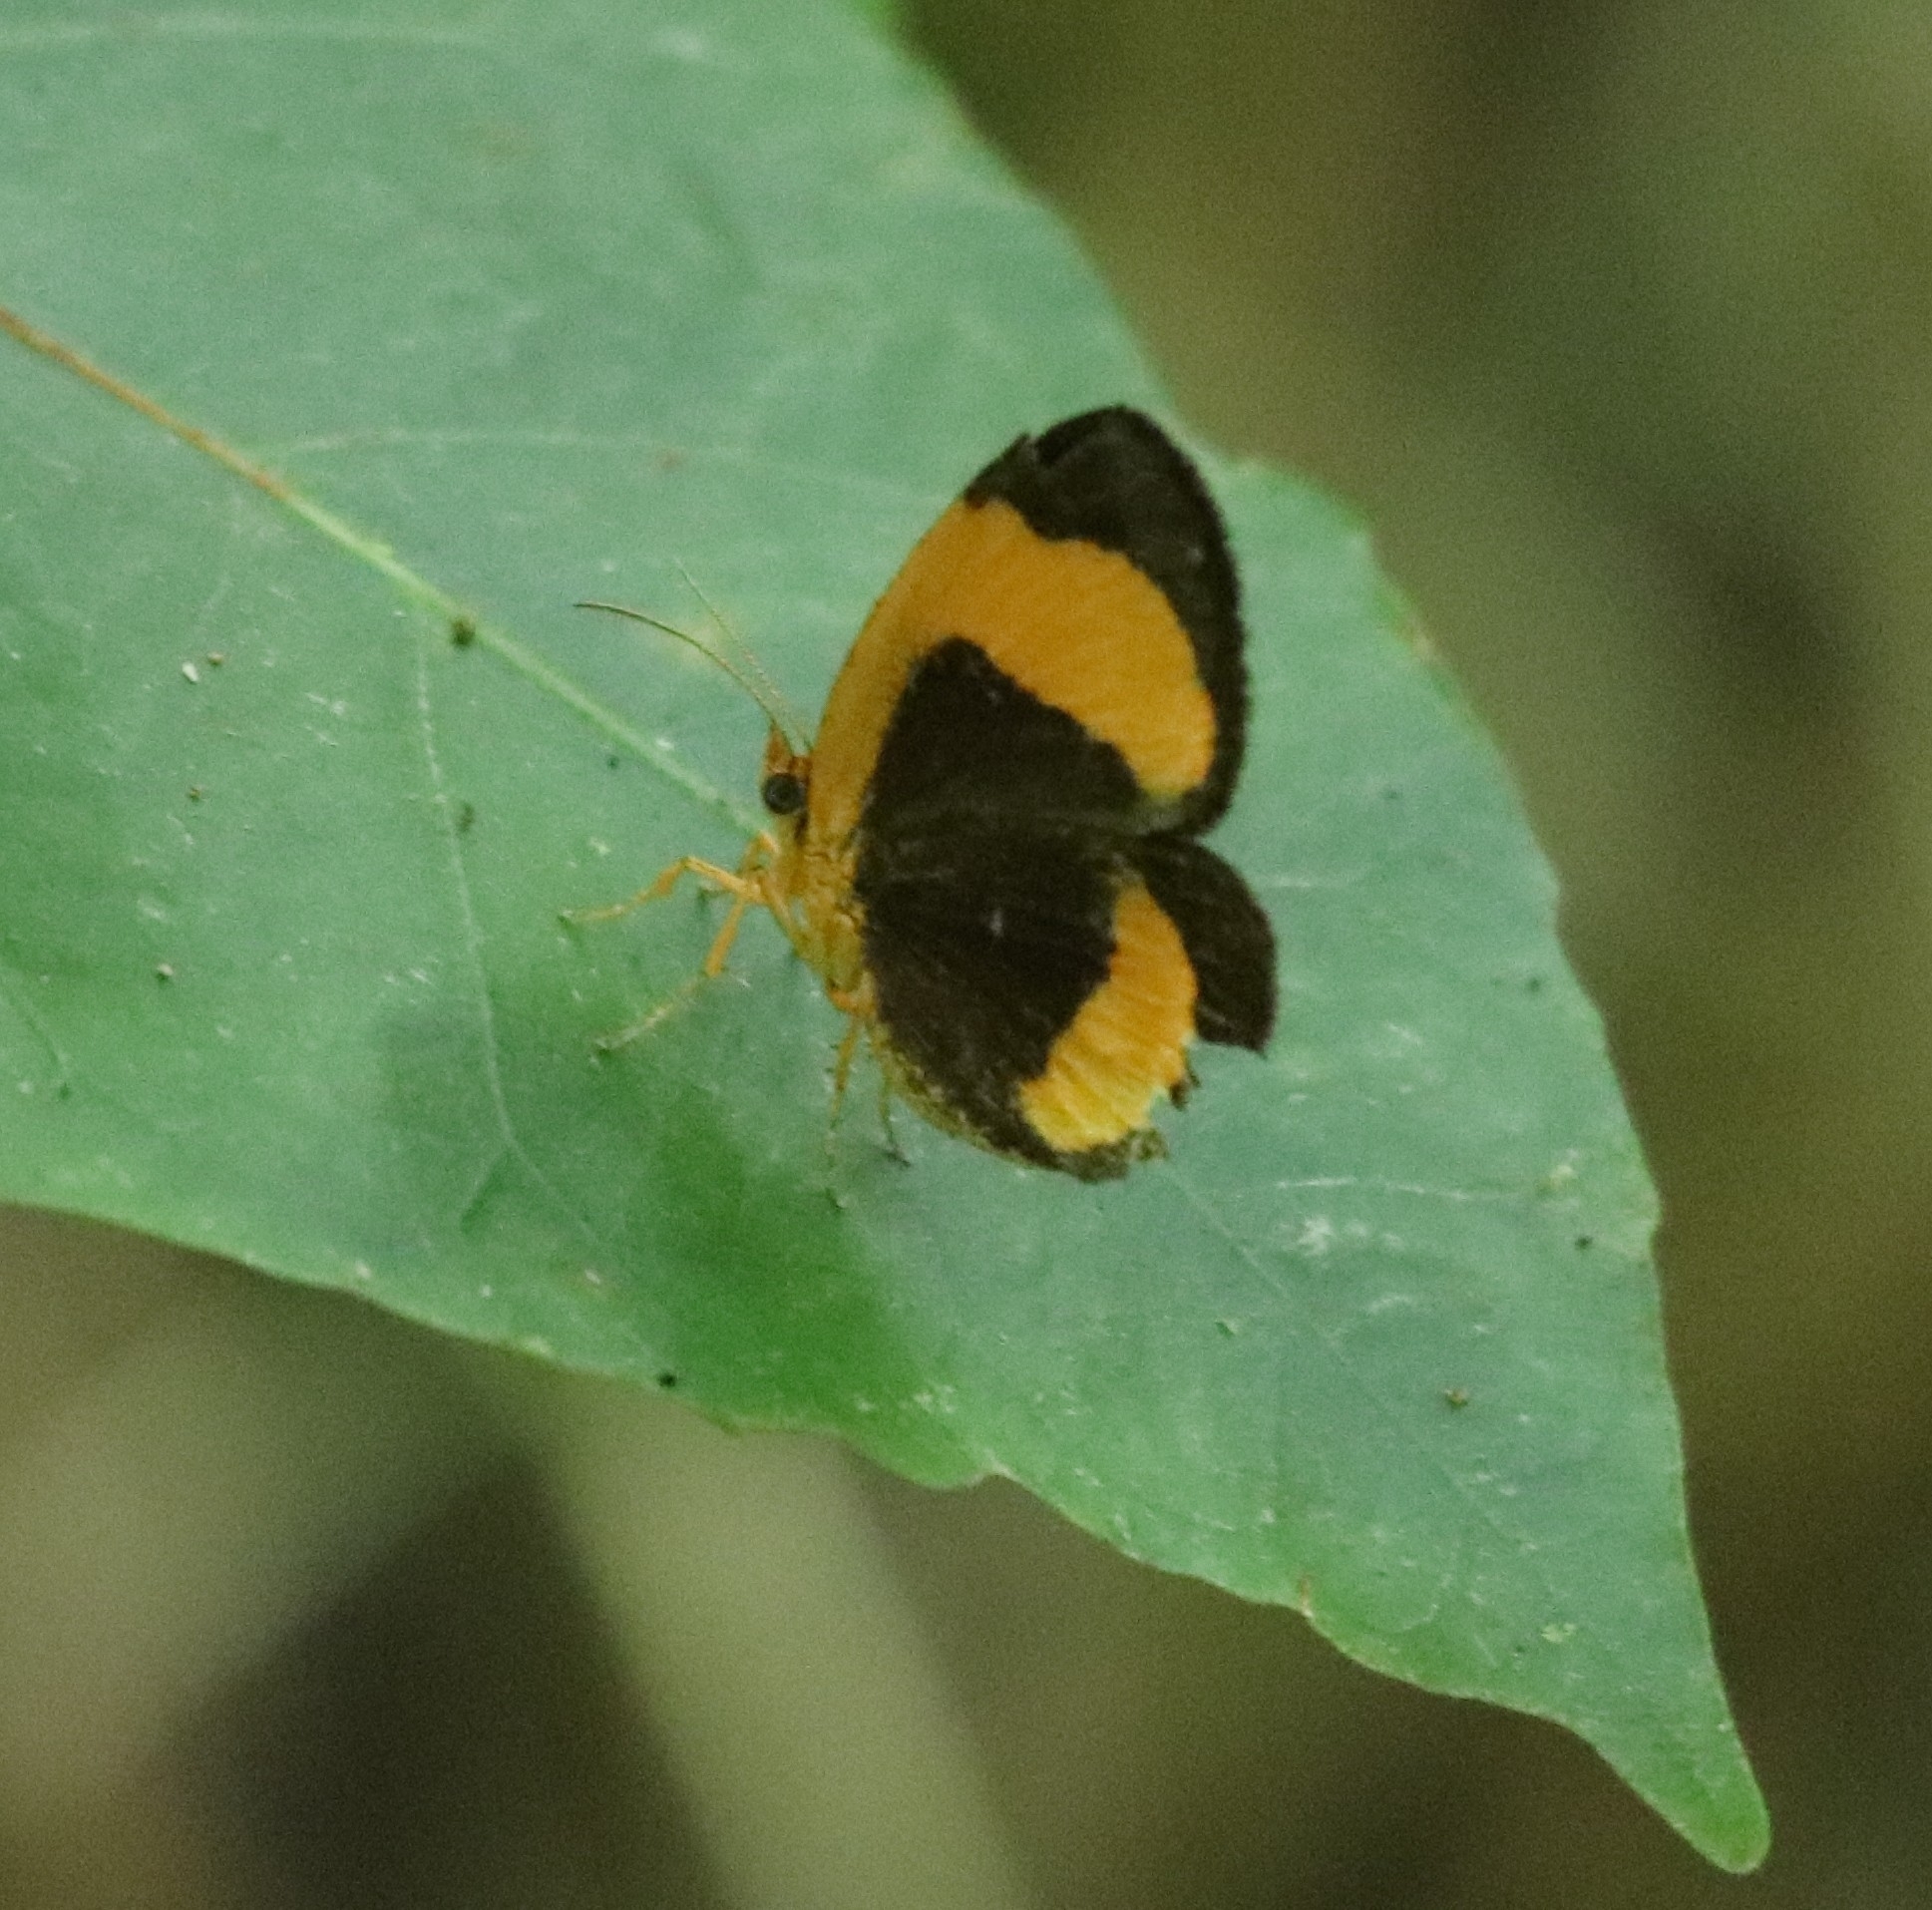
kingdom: Animalia
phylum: Arthropoda
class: Insecta
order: Lepidoptera
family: Callidulidae
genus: Callidula
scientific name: Callidula fasciata
